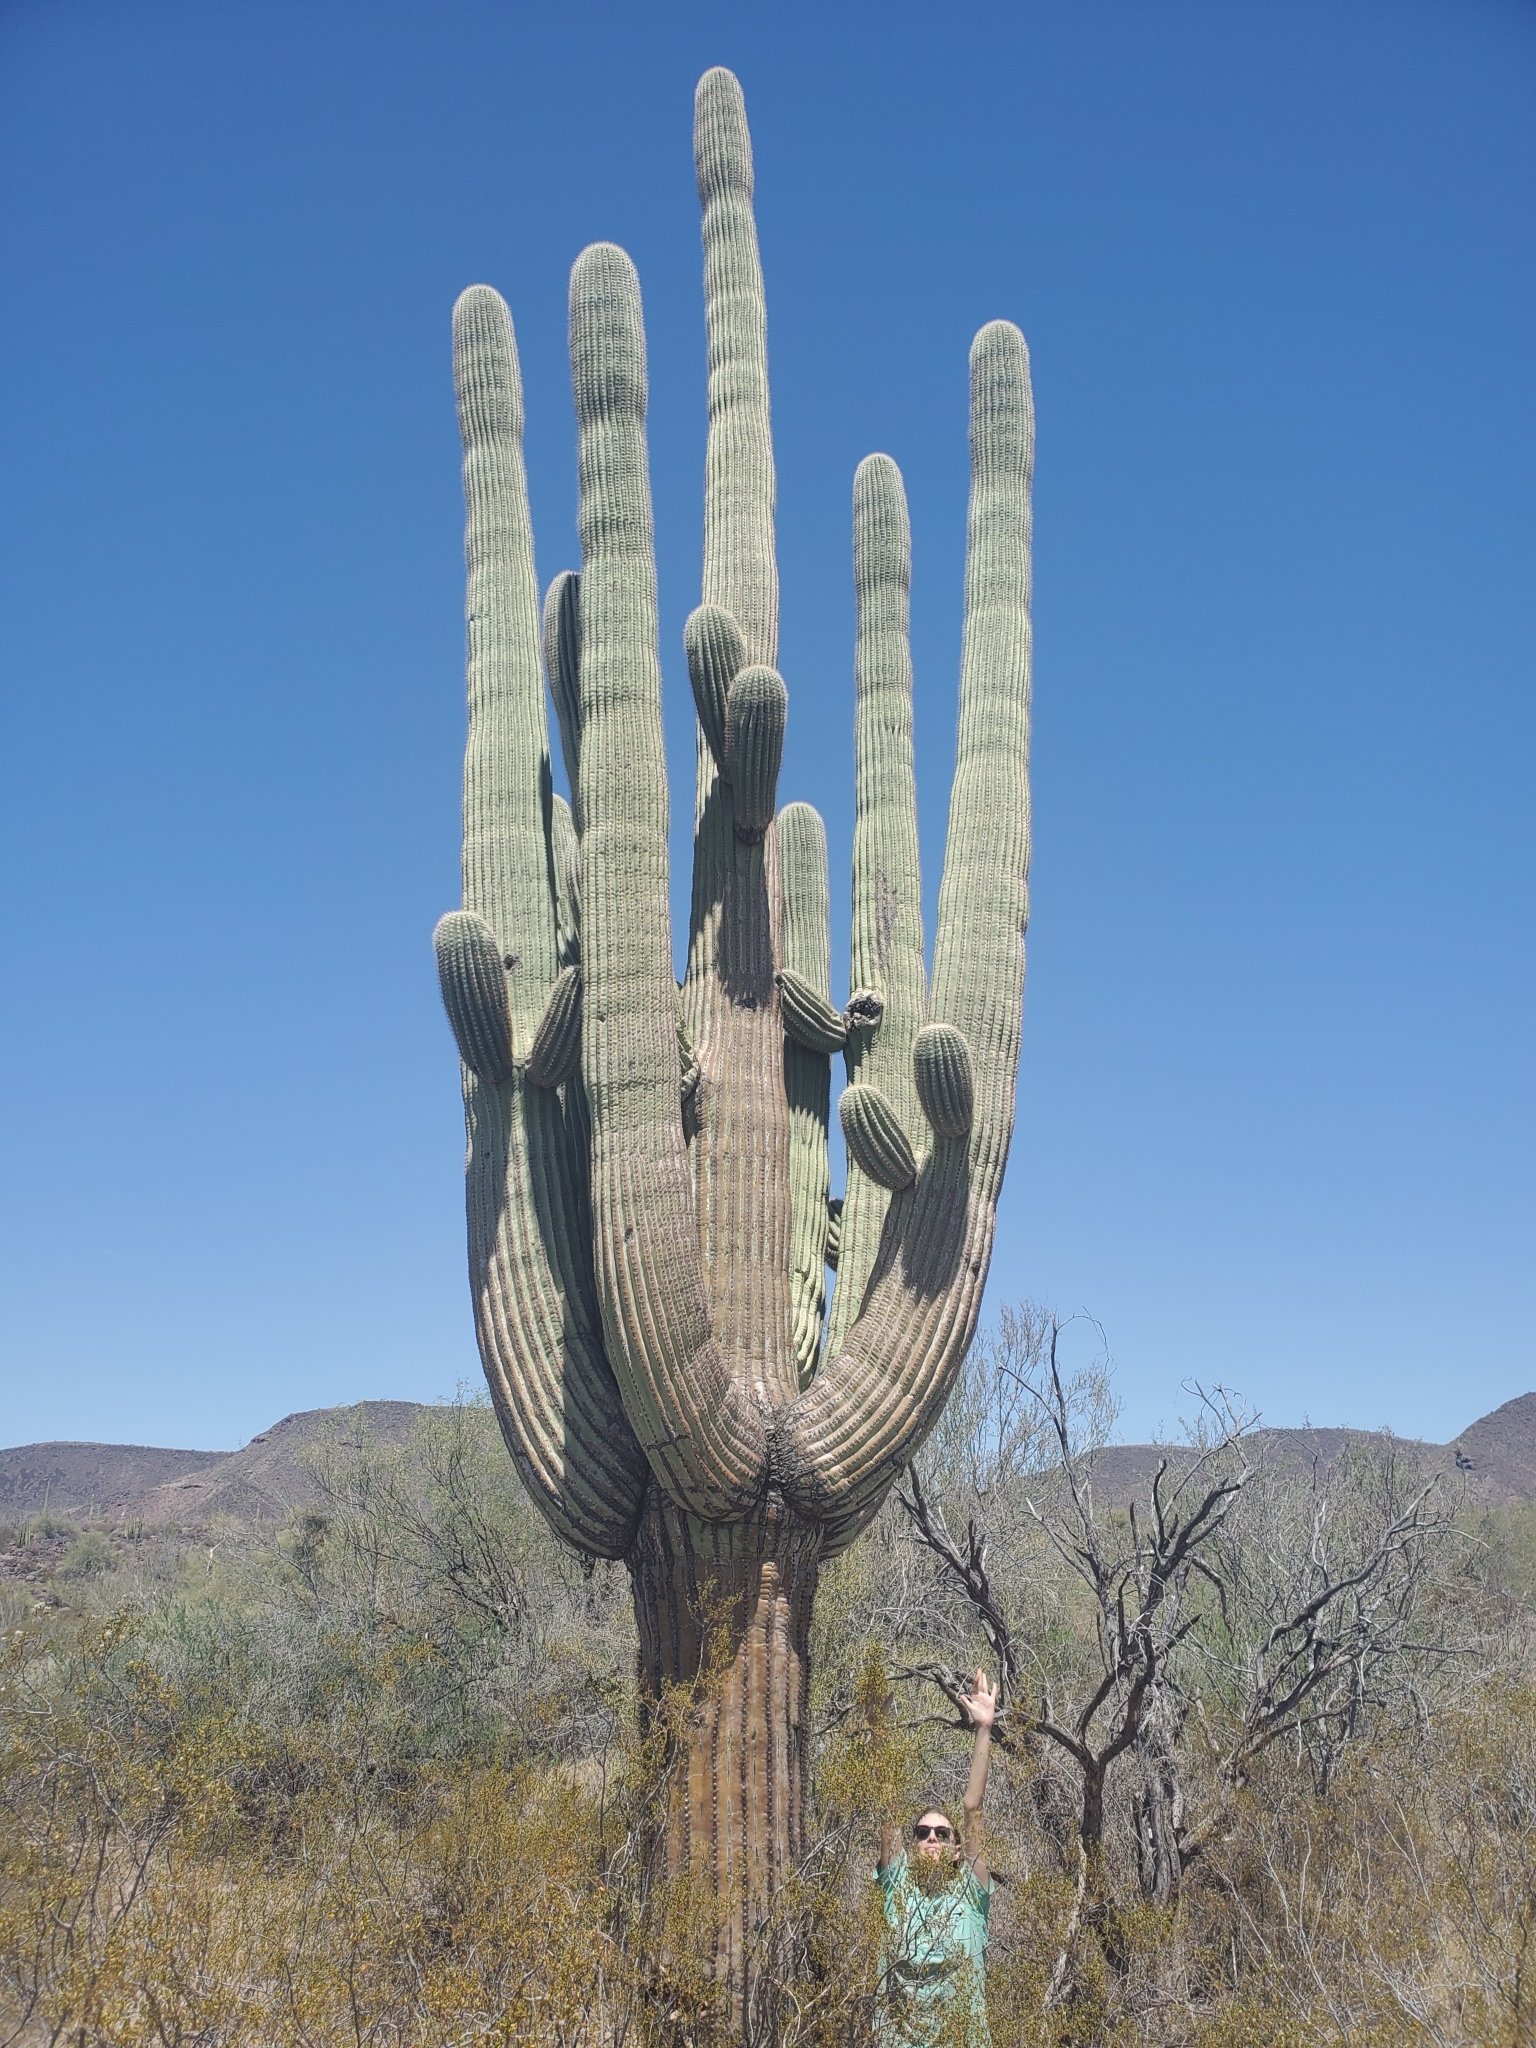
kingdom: Plantae
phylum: Tracheophyta
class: Magnoliopsida
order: Caryophyllales
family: Cactaceae
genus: Carnegiea
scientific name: Carnegiea gigantea
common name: Saguaro
